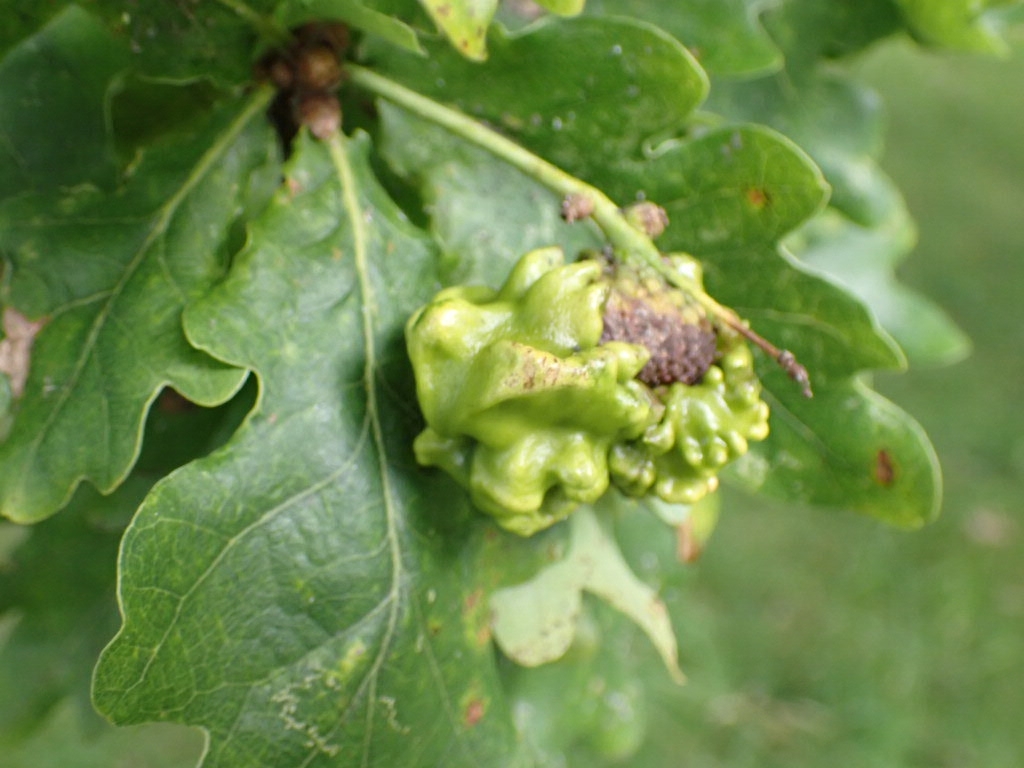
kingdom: Animalia
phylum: Arthropoda
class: Insecta
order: Hymenoptera
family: Cynipidae
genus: Andricus
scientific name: Andricus quercuscalicis
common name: Knopper gall
